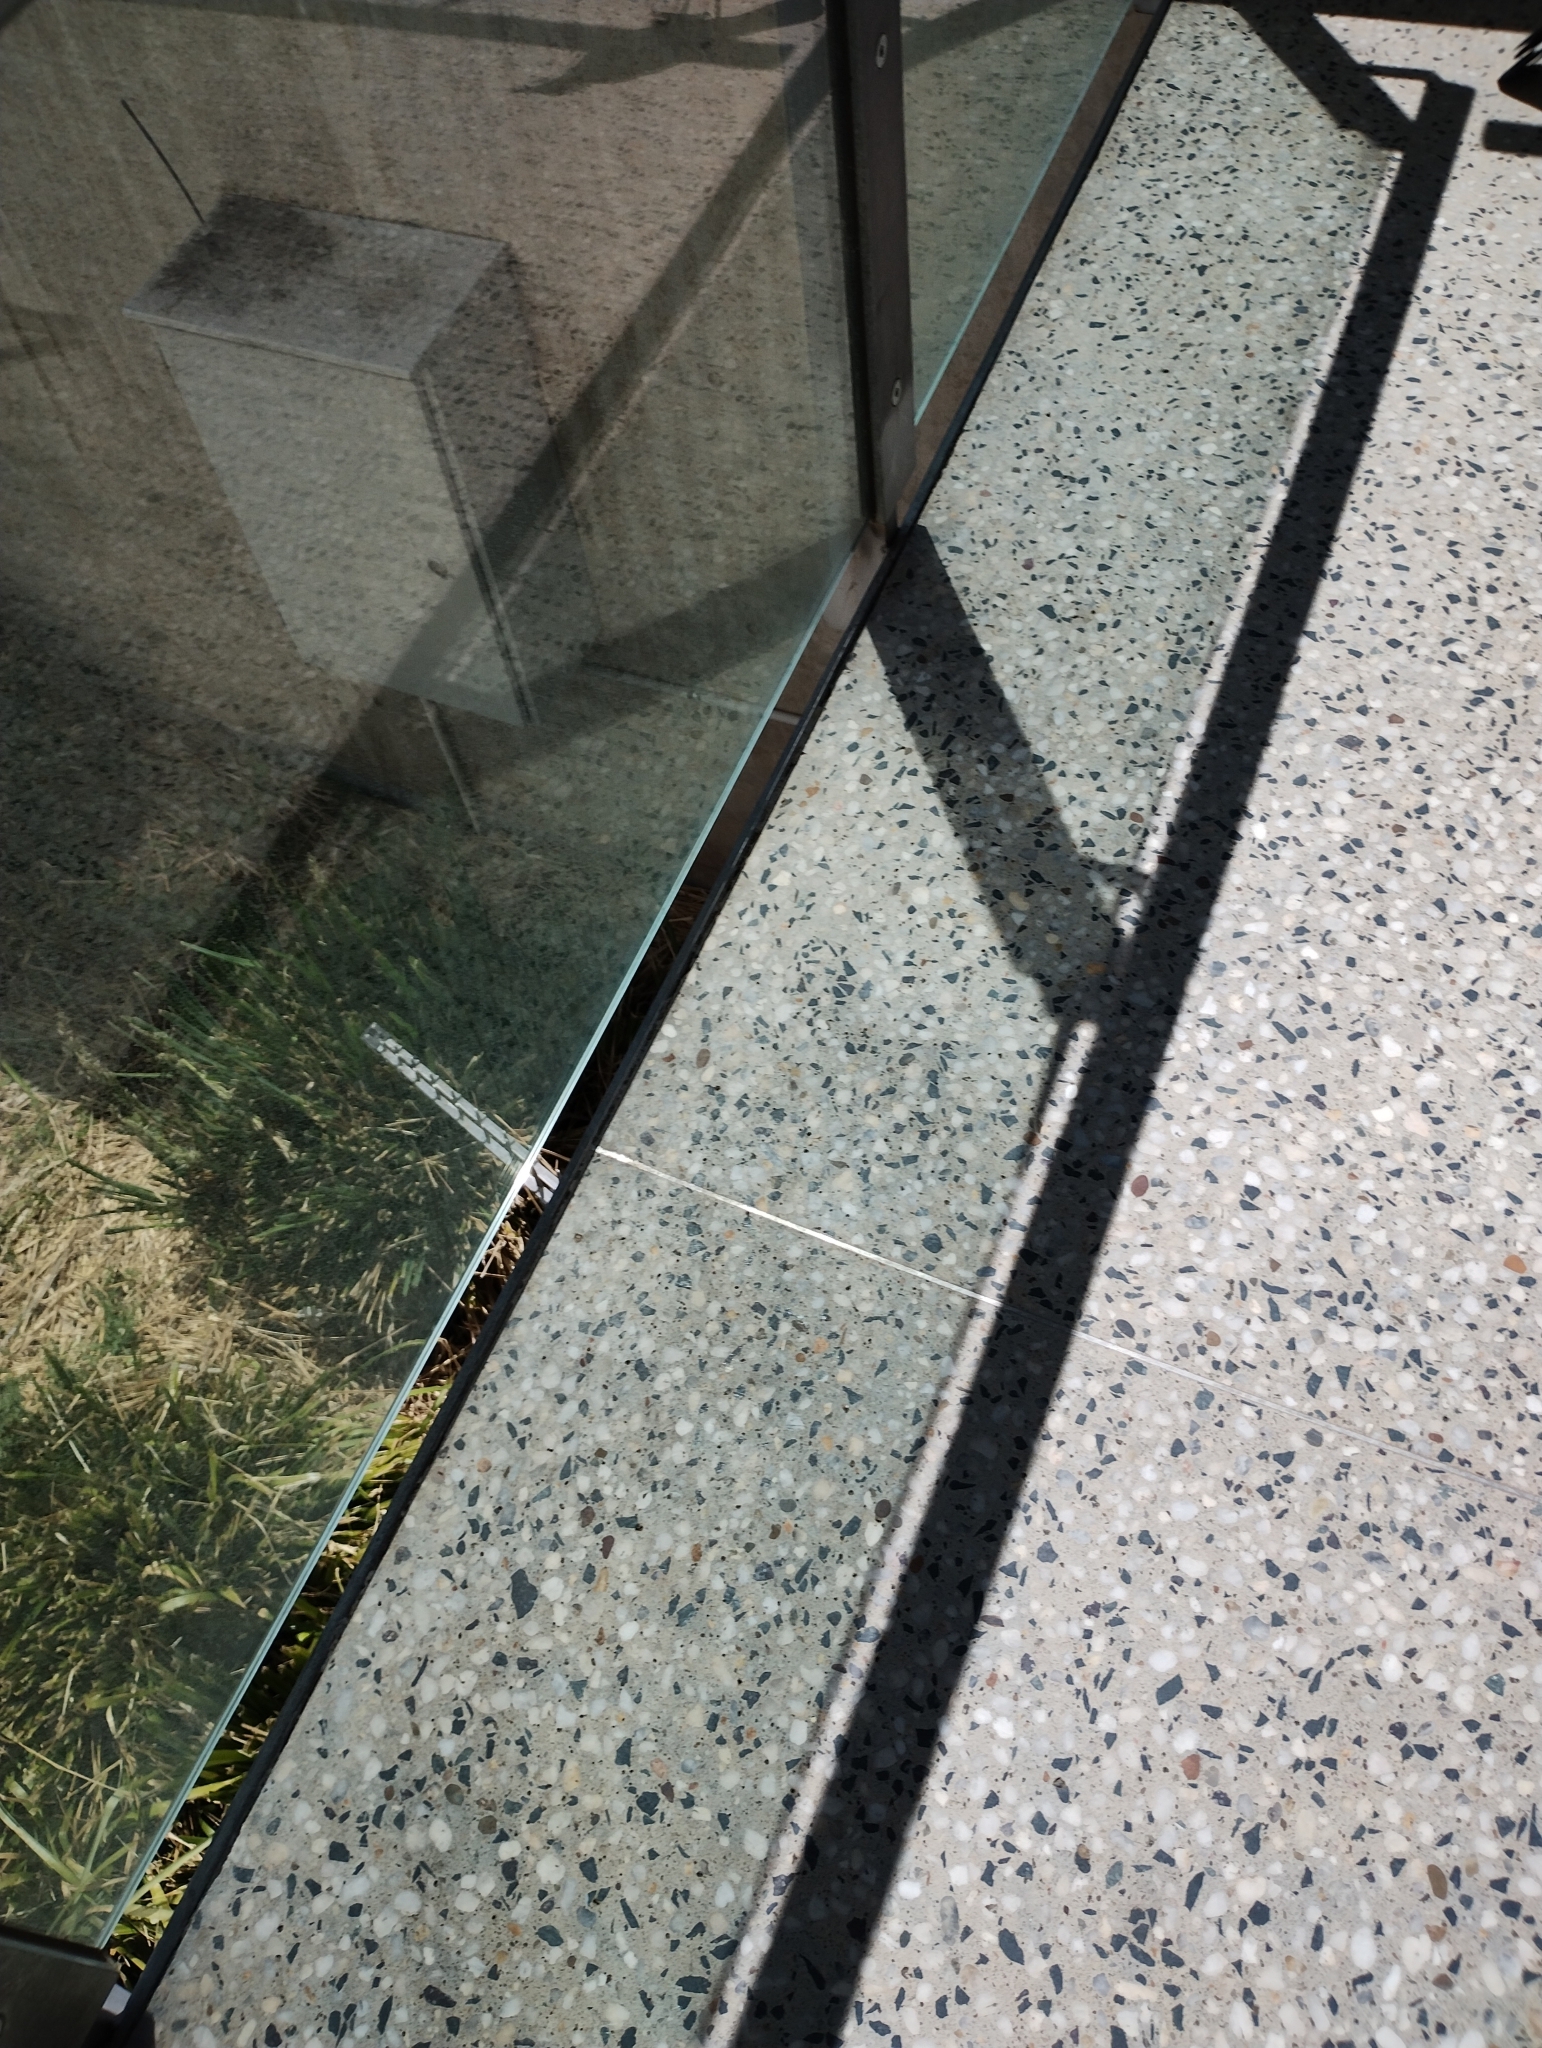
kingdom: Animalia
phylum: Chordata
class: Aves
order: Passeriformes
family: Meliphagidae
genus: Manorina
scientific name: Manorina melanocephala
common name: Noisy miner
